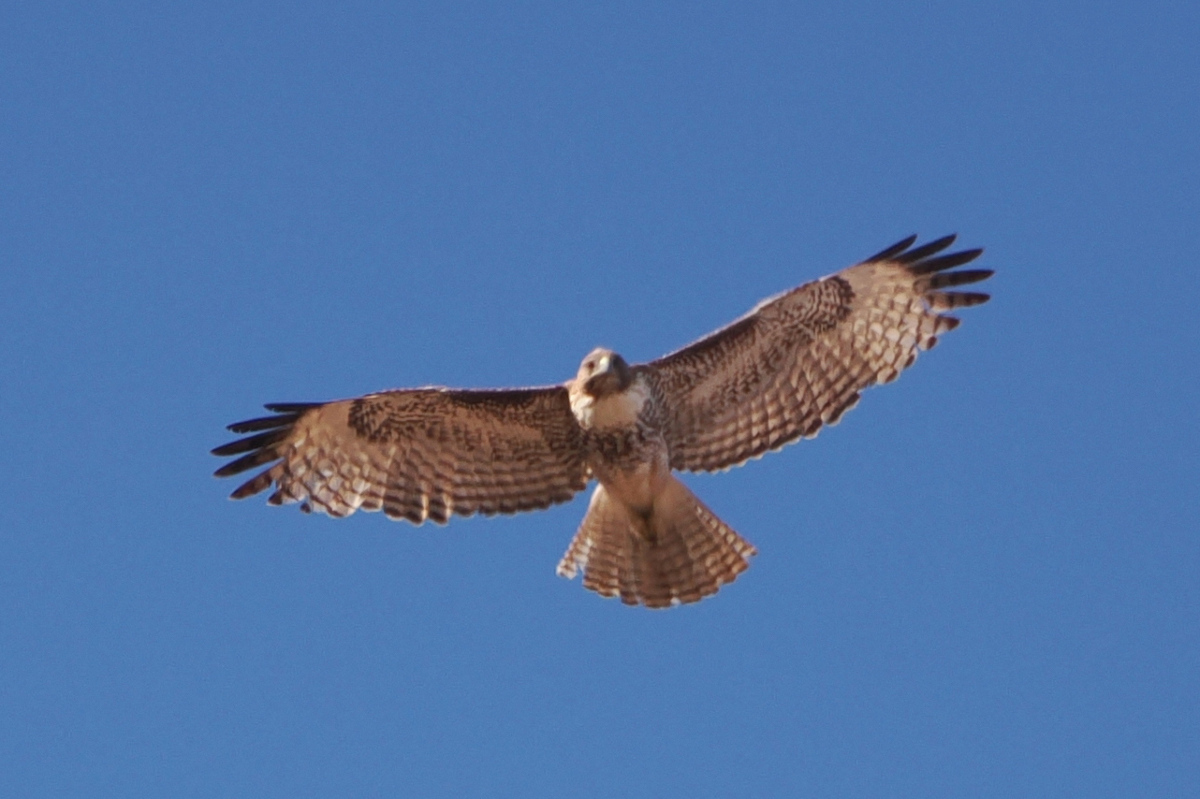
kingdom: Animalia
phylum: Chordata
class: Aves
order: Accipitriformes
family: Accipitridae
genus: Buteo
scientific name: Buteo jamaicensis
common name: Red-tailed hawk
